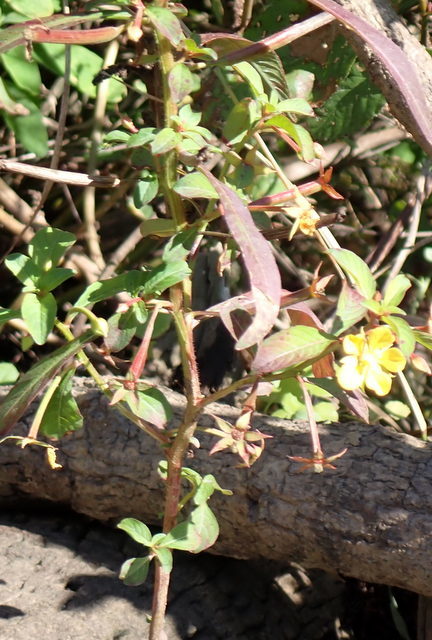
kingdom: Plantae
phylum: Tracheophyta
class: Magnoliopsida
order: Myrtales
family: Onagraceae
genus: Ludwigia
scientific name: Ludwigia leptocarpa
